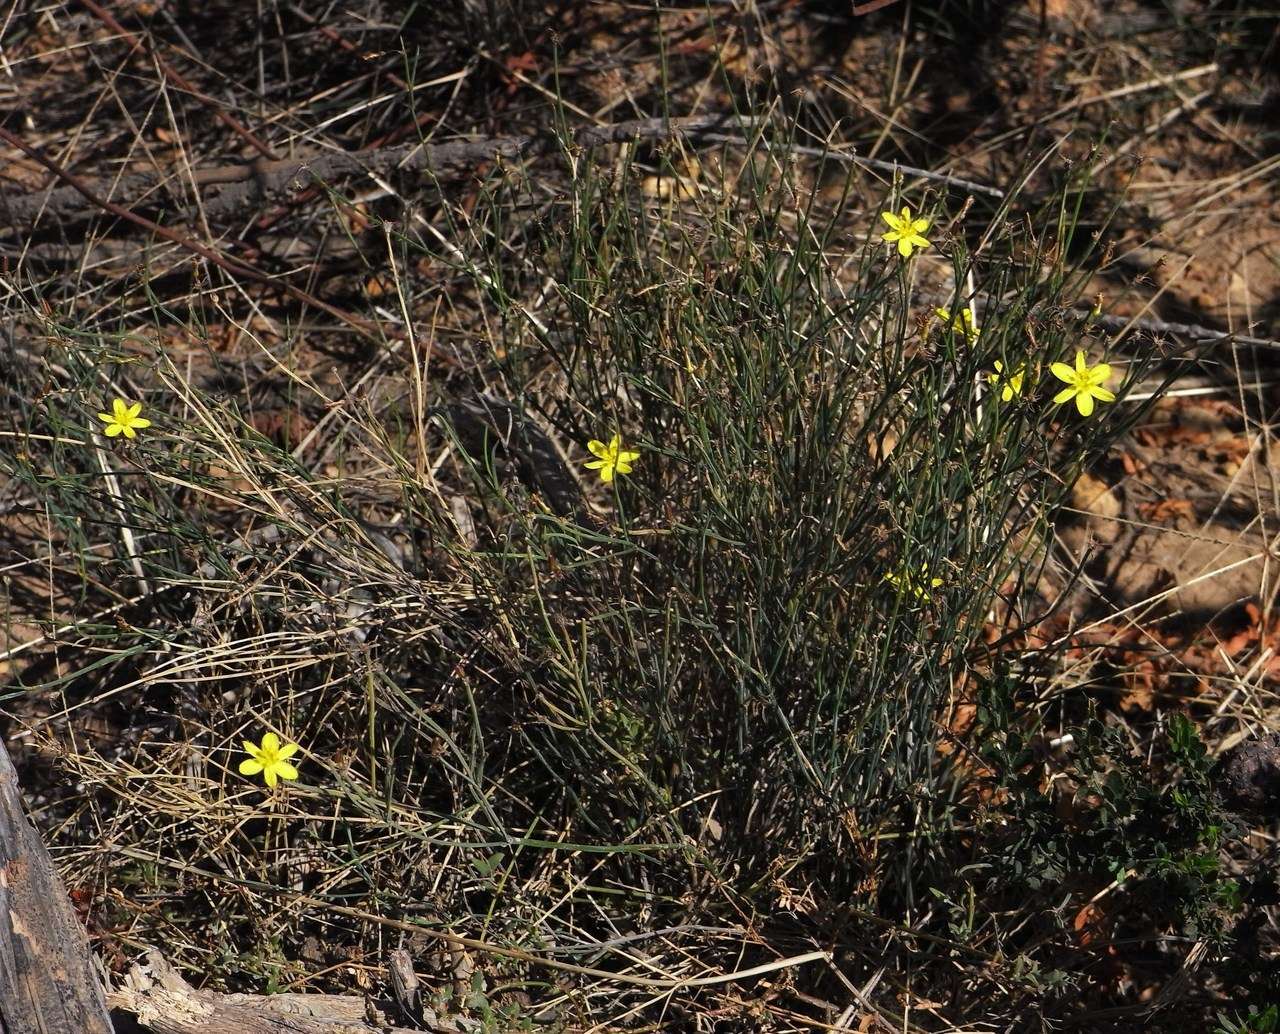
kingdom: Plantae
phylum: Tracheophyta
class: Liliopsida
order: Asparagales
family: Asphodelaceae
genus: Tricoryne
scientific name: Tricoryne elatior
